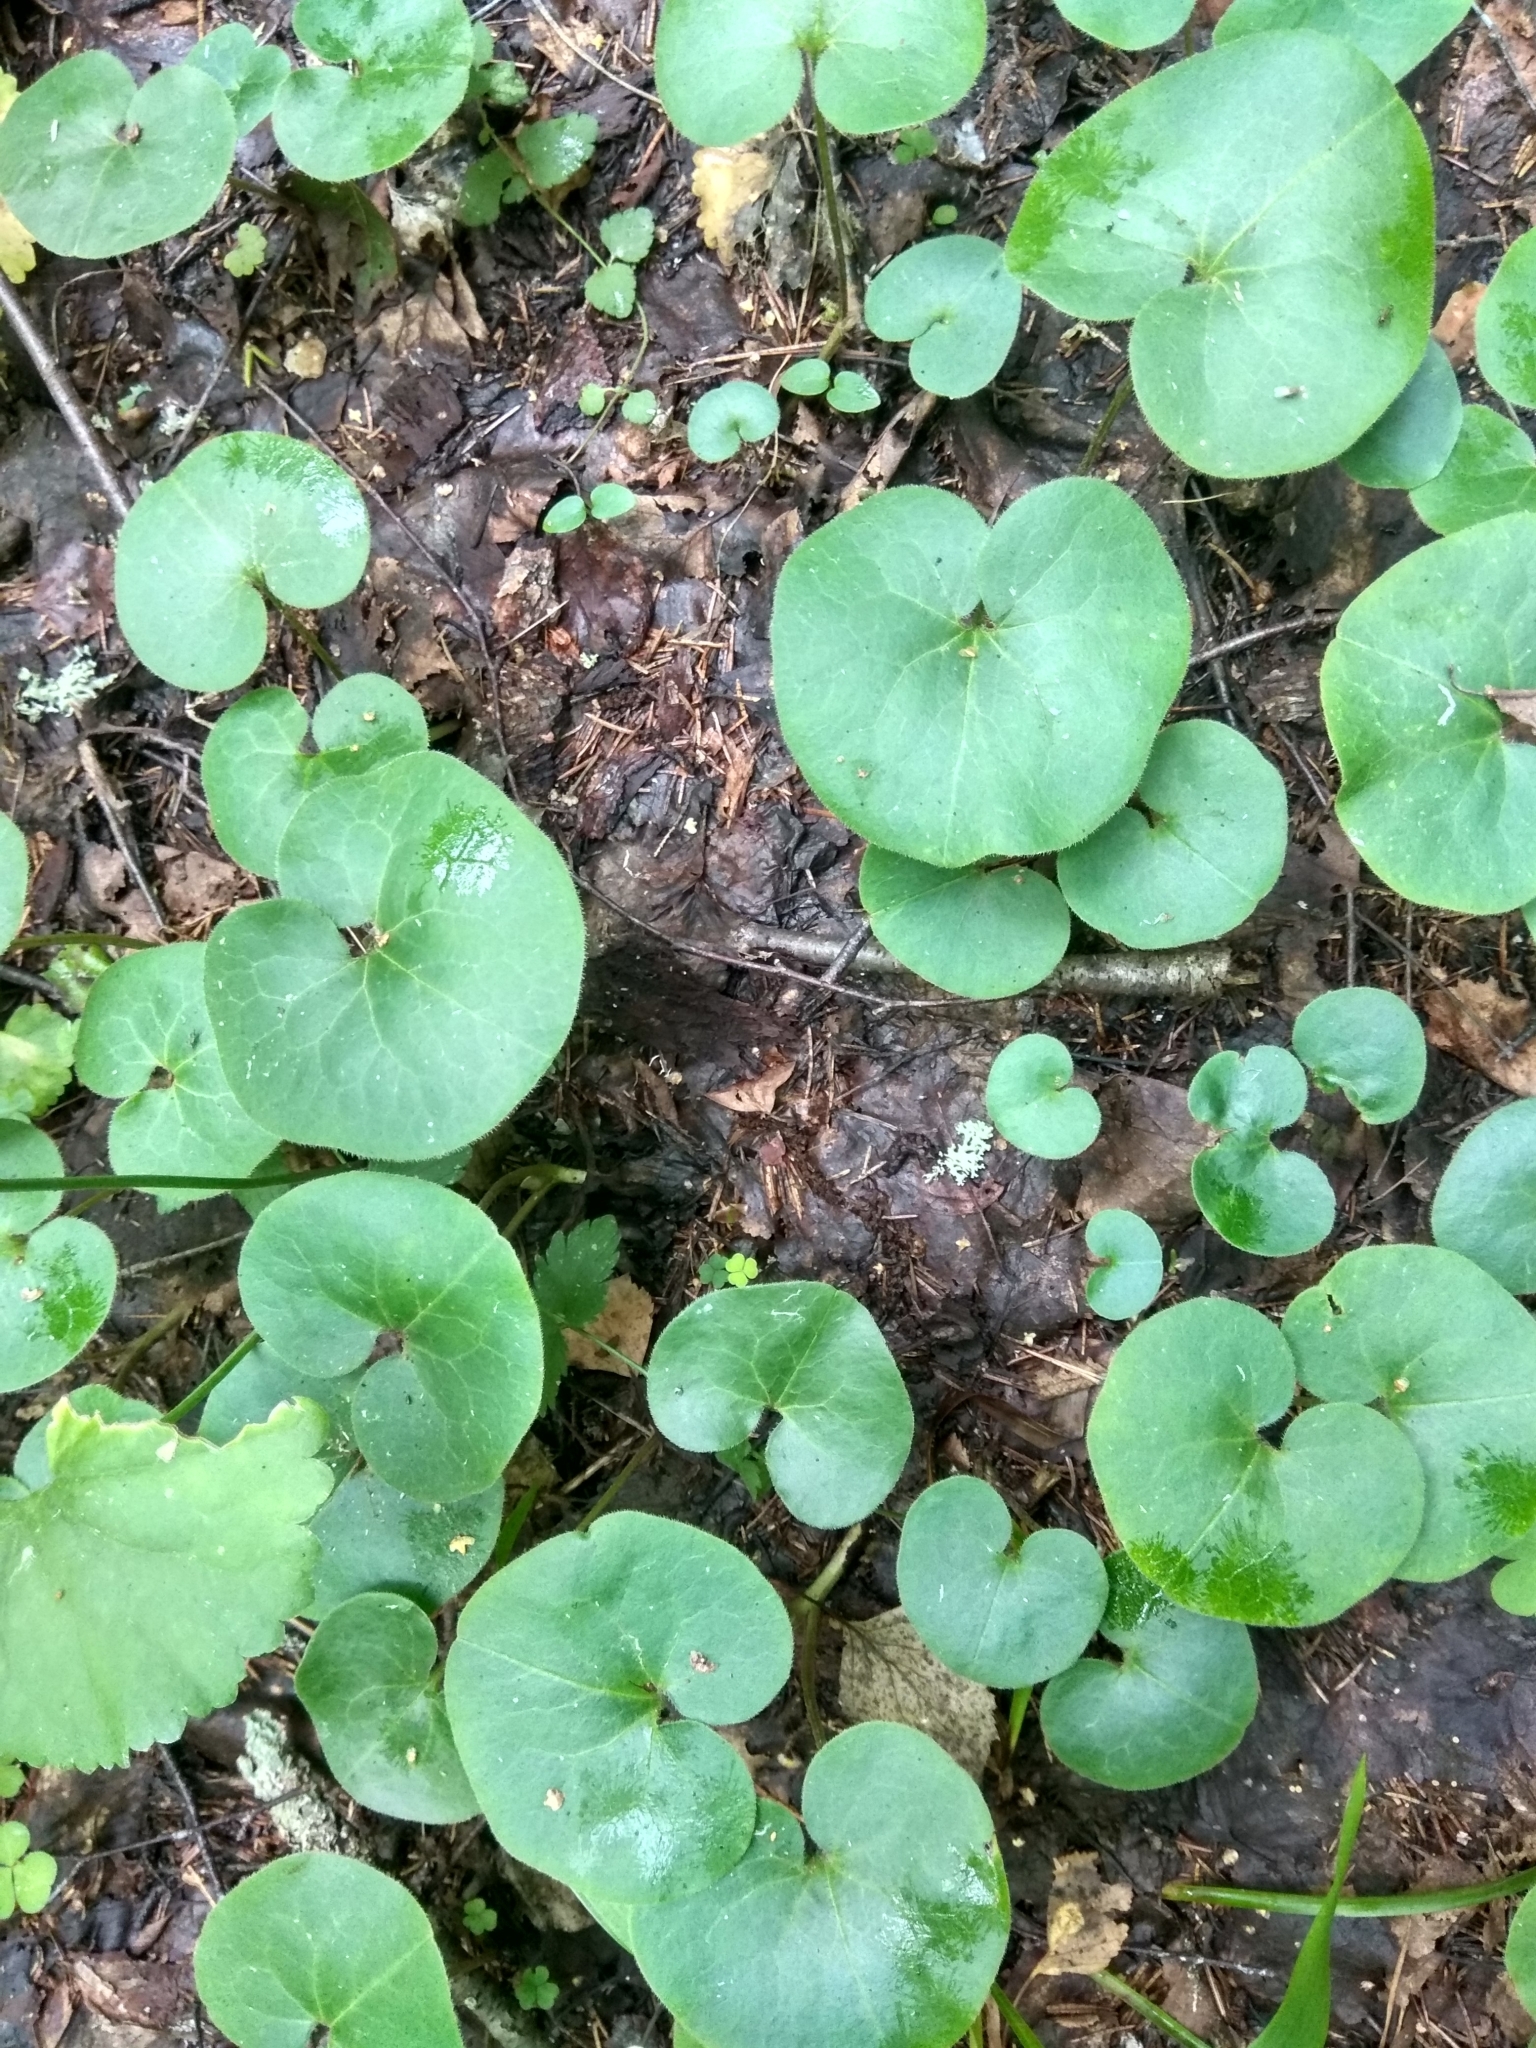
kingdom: Plantae
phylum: Tracheophyta
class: Magnoliopsida
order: Piperales
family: Aristolochiaceae
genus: Asarum
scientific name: Asarum europaeum
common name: Asarabacca
